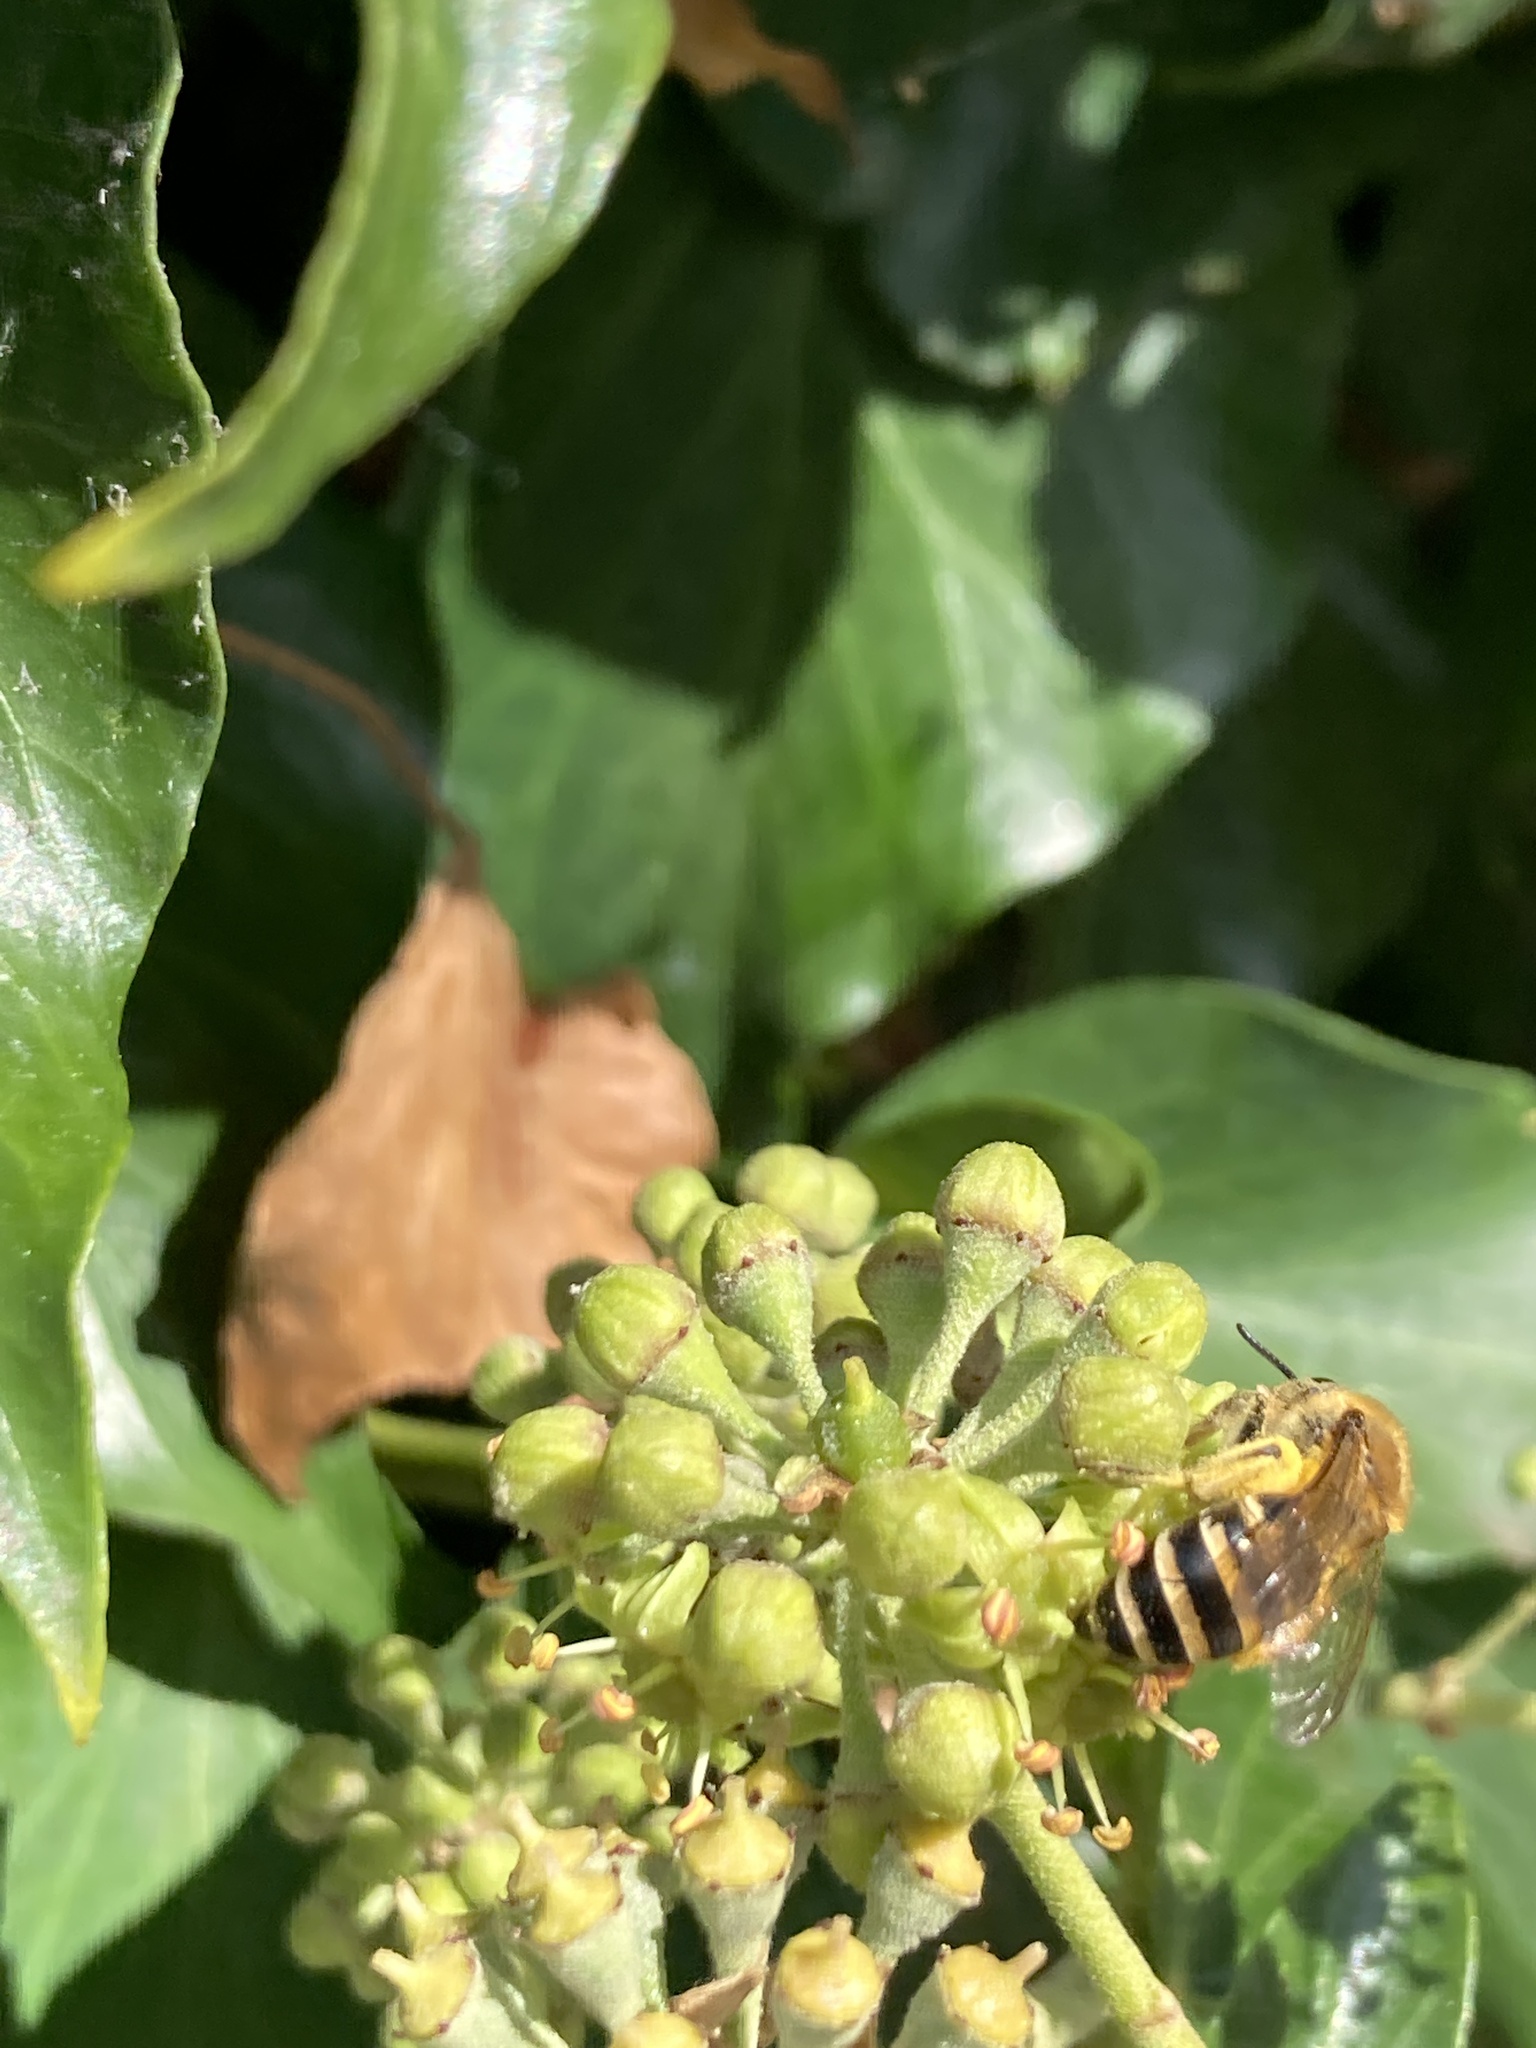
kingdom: Animalia
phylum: Arthropoda
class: Insecta
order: Hymenoptera
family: Colletidae
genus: Colletes
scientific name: Colletes hederae
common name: Ivy bee
